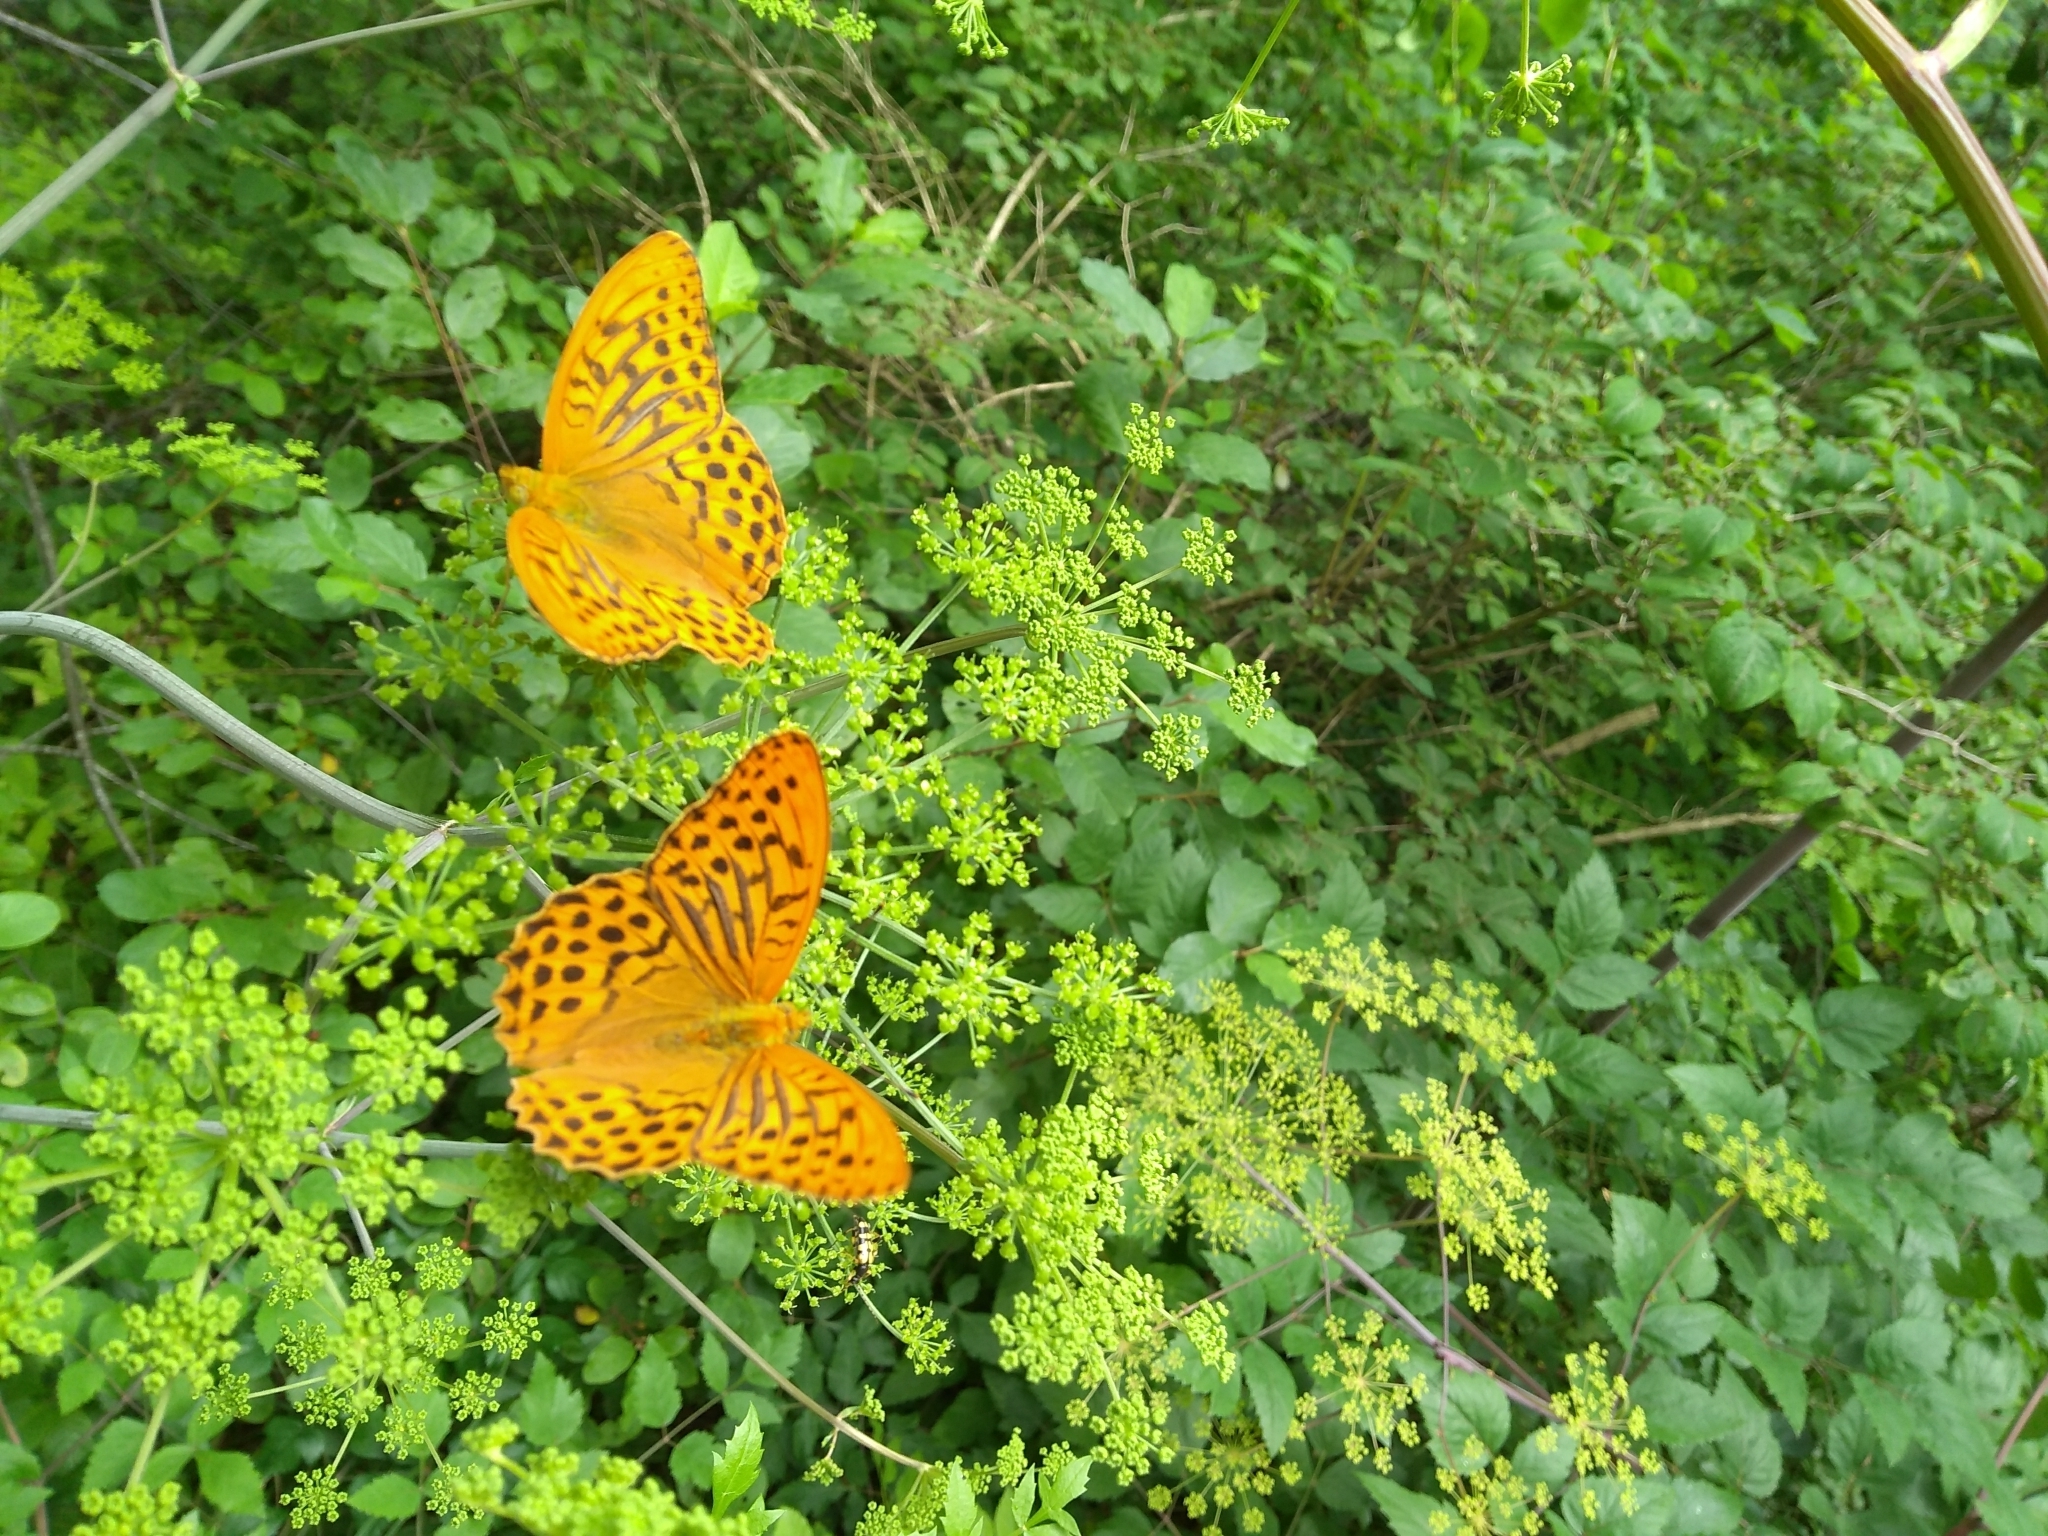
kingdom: Animalia
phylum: Arthropoda
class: Insecta
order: Lepidoptera
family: Nymphalidae
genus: Argynnis
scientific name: Argynnis paphia
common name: Silver-washed fritillary
